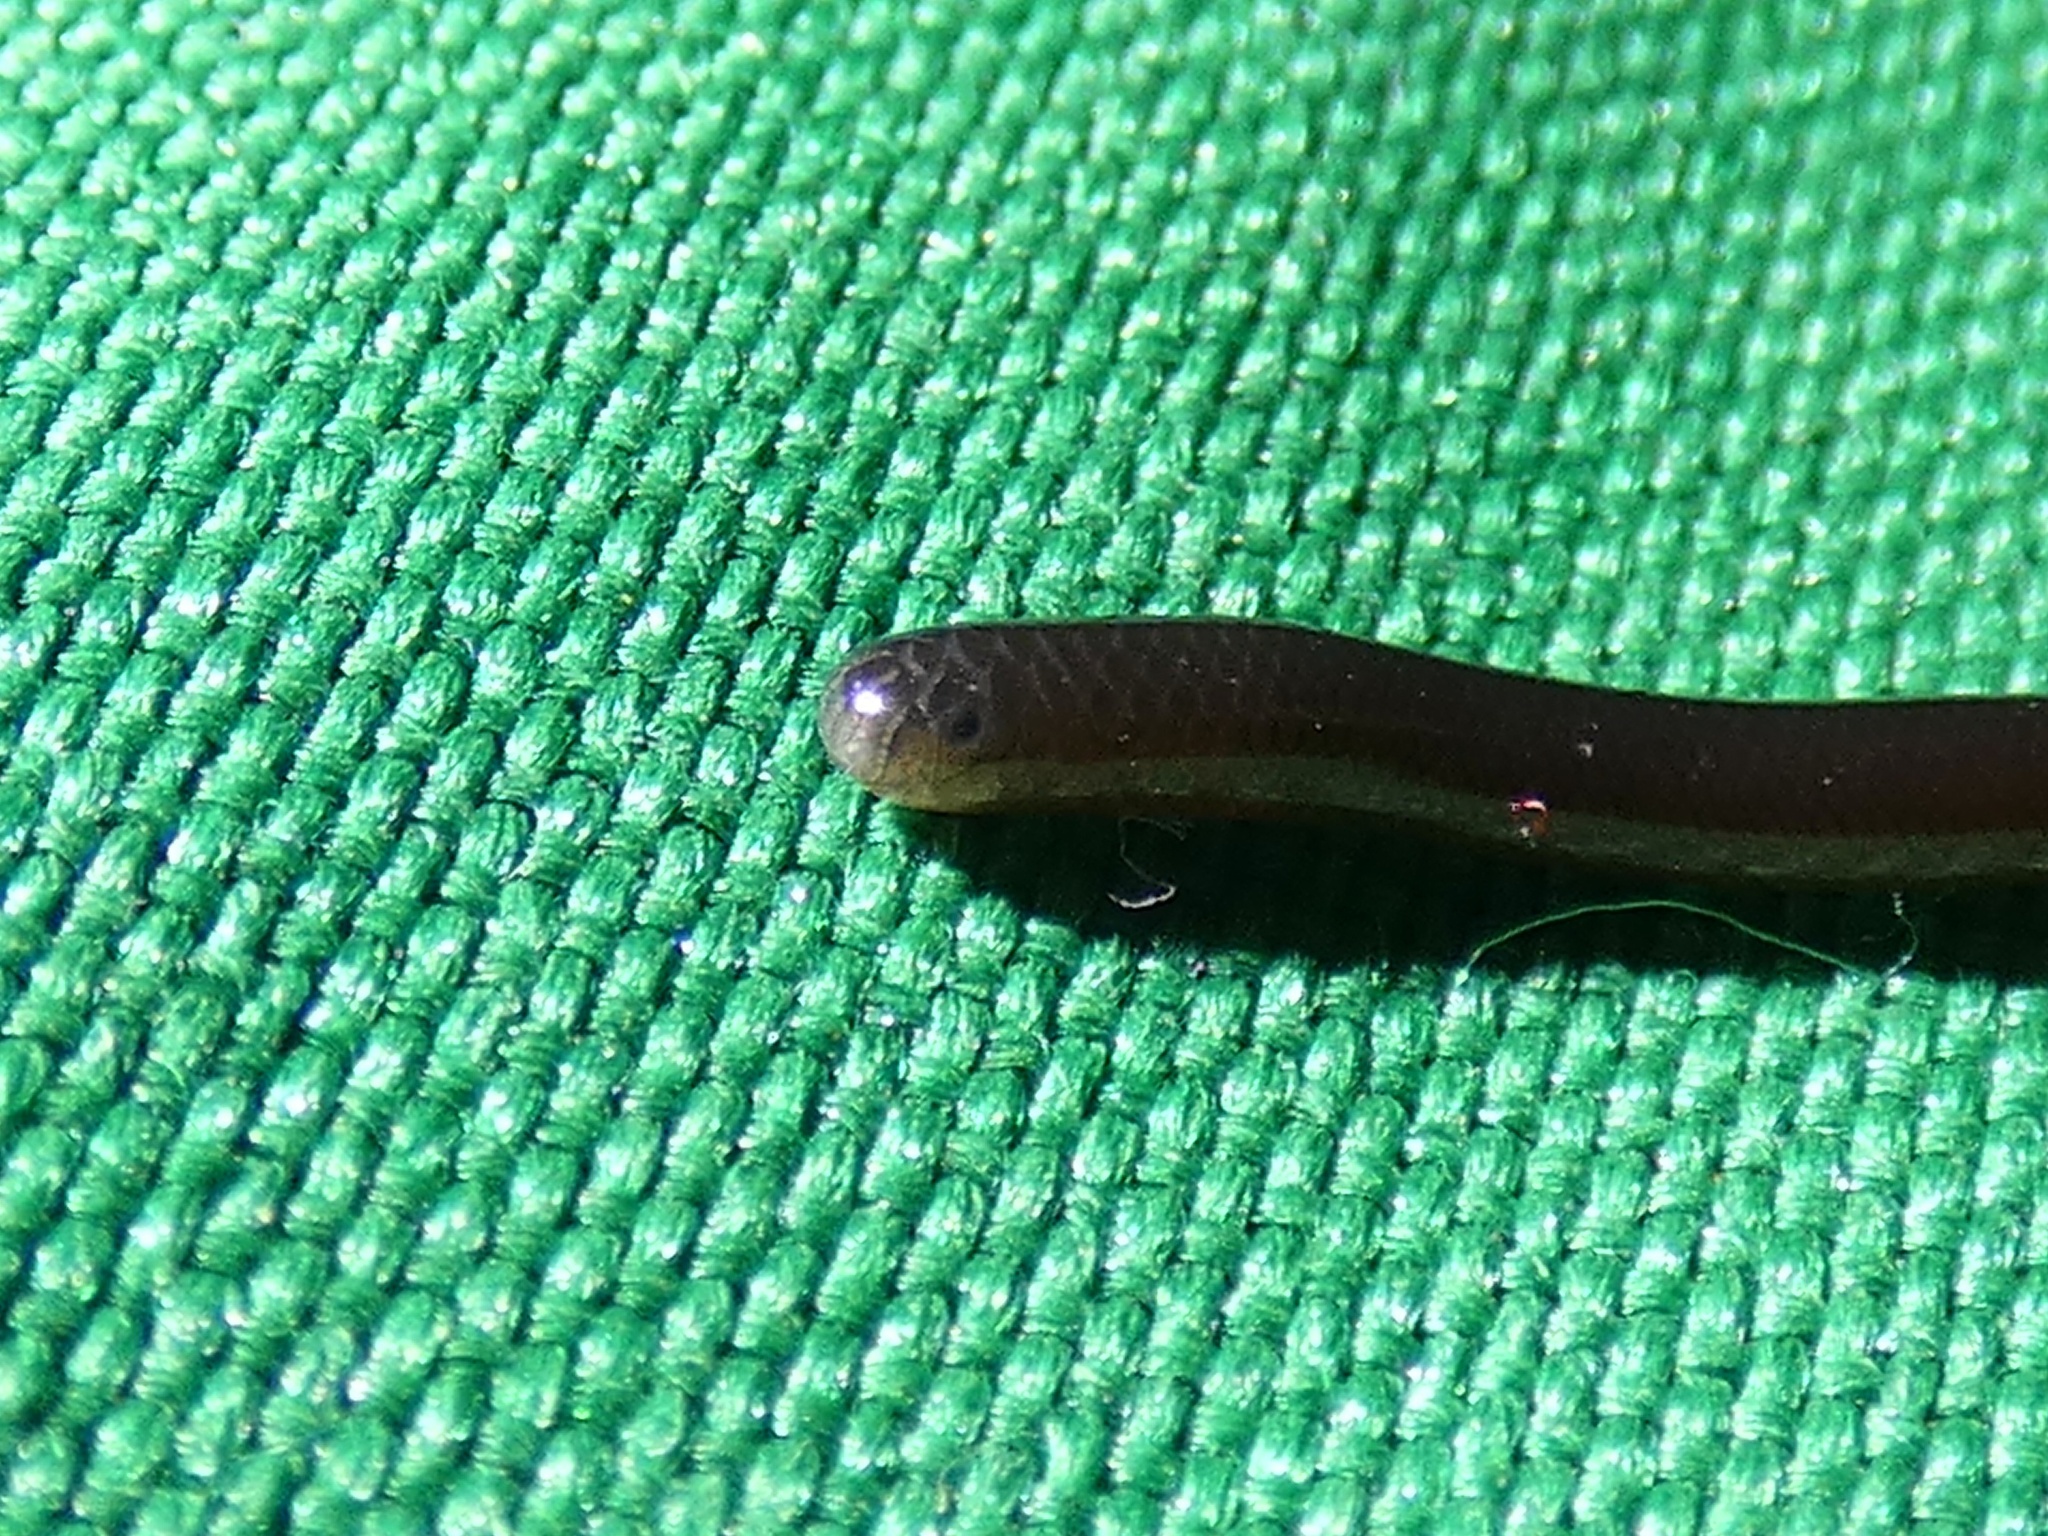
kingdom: Animalia
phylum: Chordata
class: Squamata
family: Typhlopidae
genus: Indotyphlops
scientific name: Indotyphlops braminus
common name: Brahminy blindsnake
